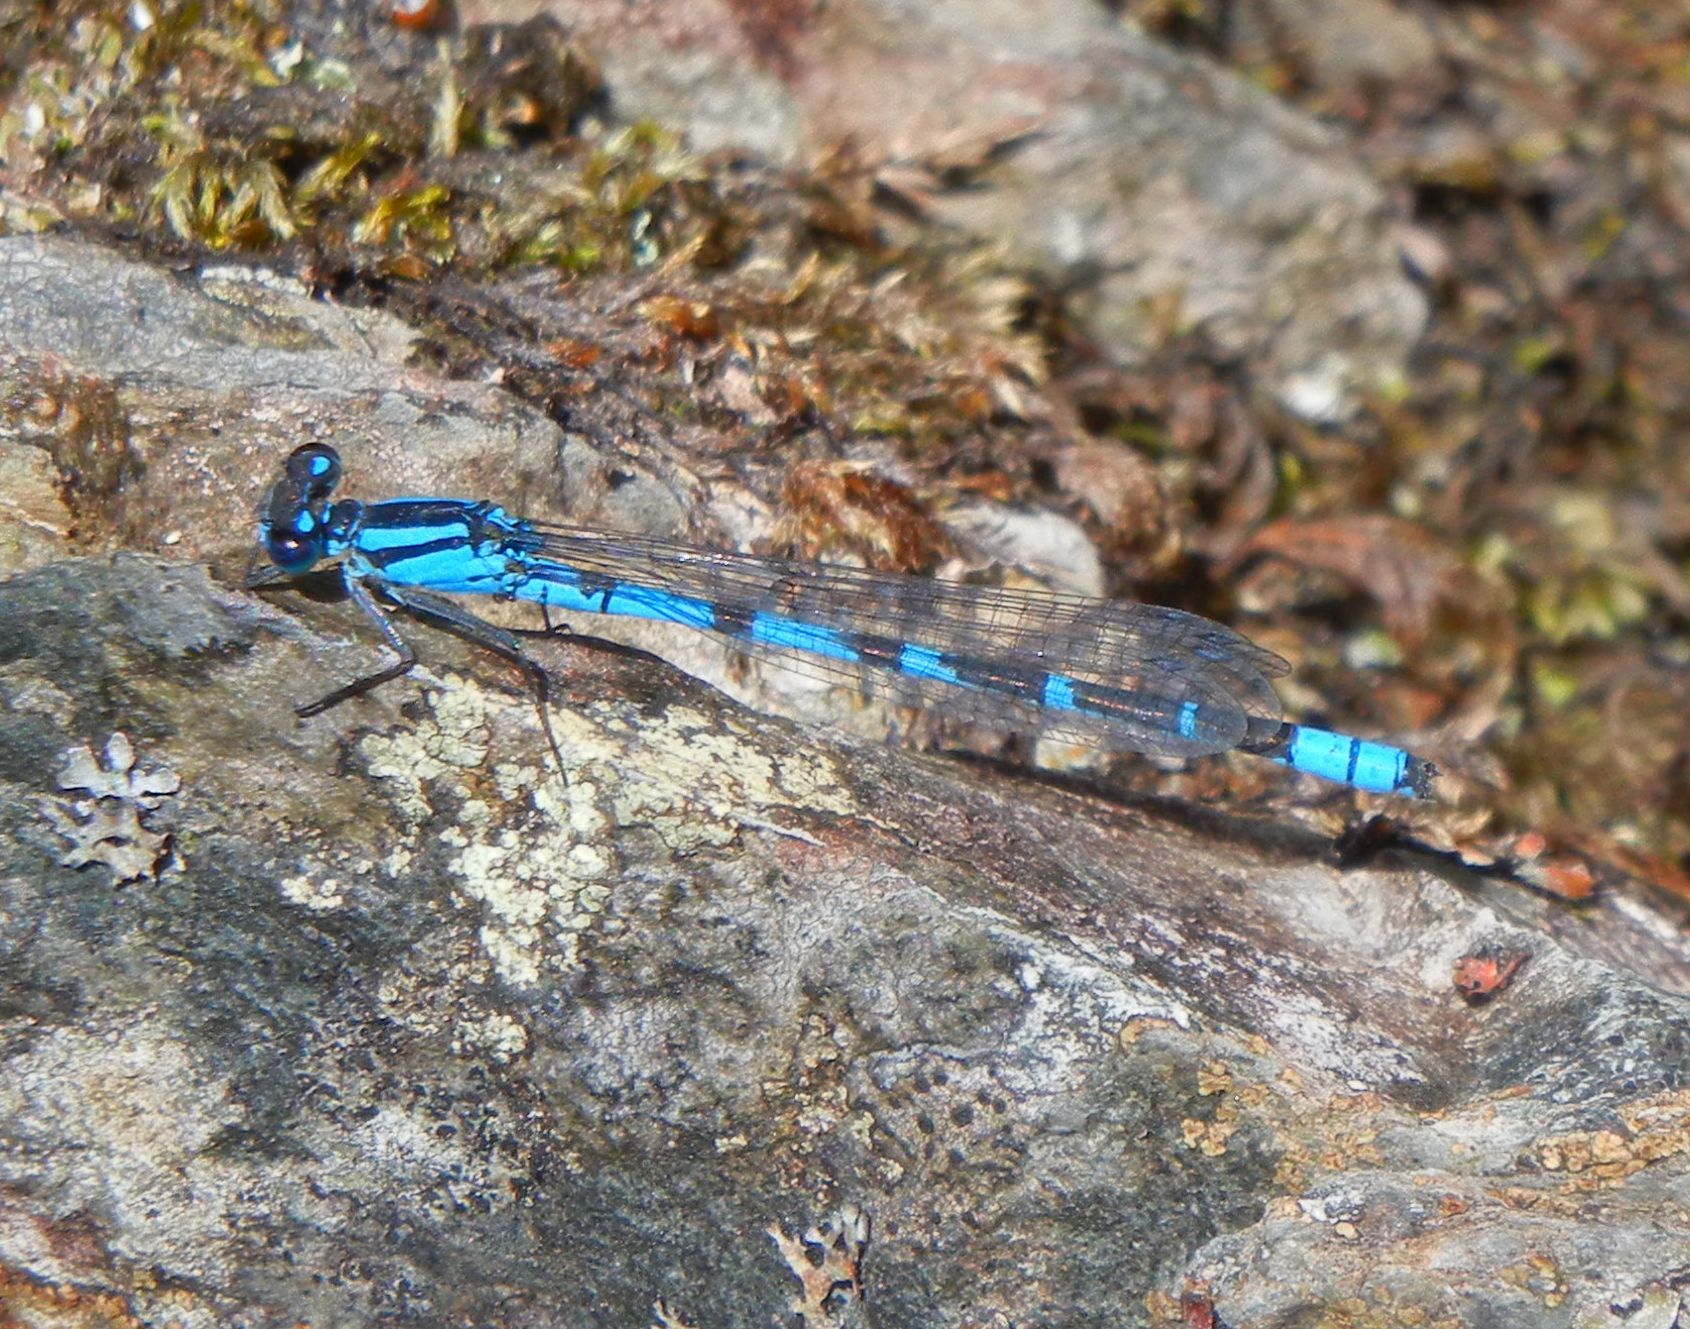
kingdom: Animalia
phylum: Arthropoda
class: Insecta
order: Odonata
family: Coenagrionidae
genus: Enallagma
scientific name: Enallagma cyathigerum
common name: Common blue damselfly
